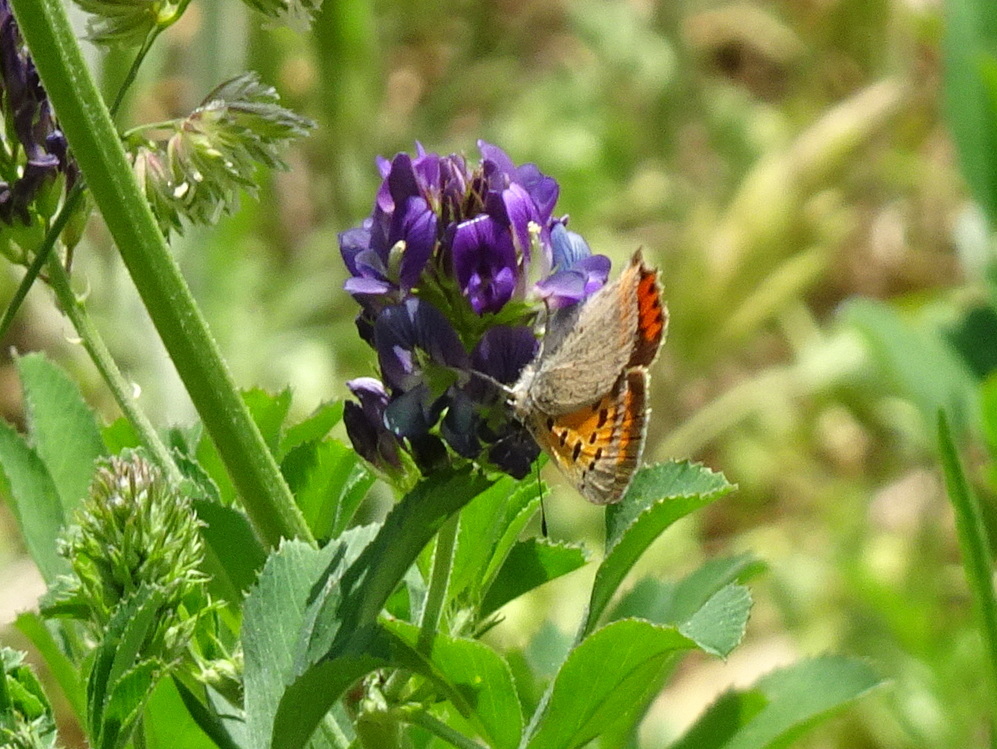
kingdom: Animalia
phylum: Arthropoda
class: Insecta
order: Lepidoptera
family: Lycaenidae
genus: Lycaena
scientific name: Lycaena phlaeas
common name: Small copper
